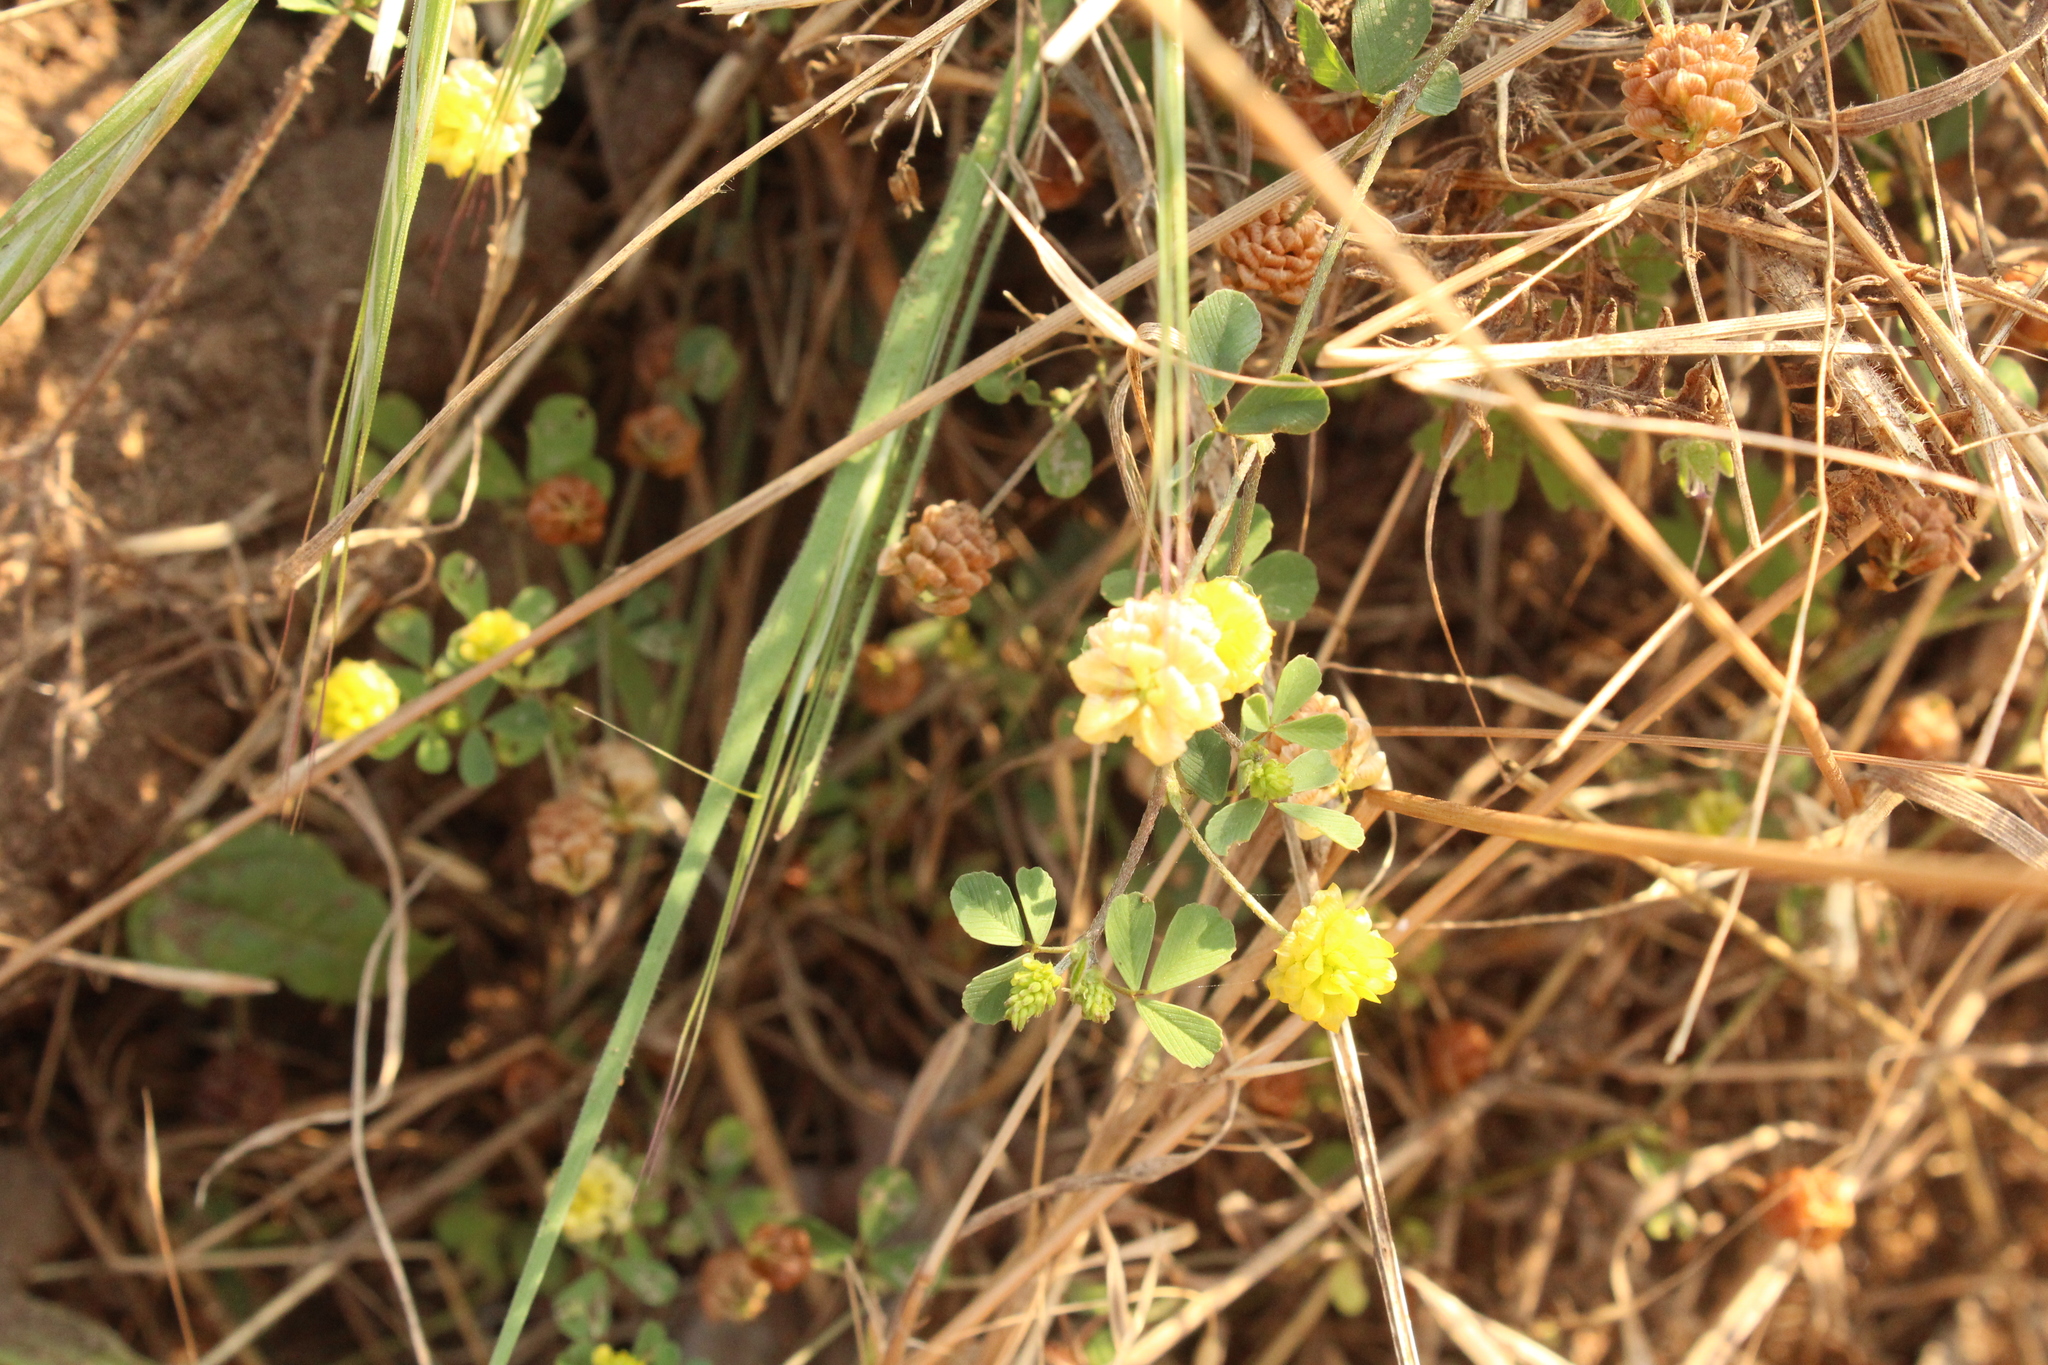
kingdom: Plantae
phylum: Tracheophyta
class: Magnoliopsida
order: Fabales
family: Fabaceae
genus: Trifolium
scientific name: Trifolium campestre
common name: Field clover
